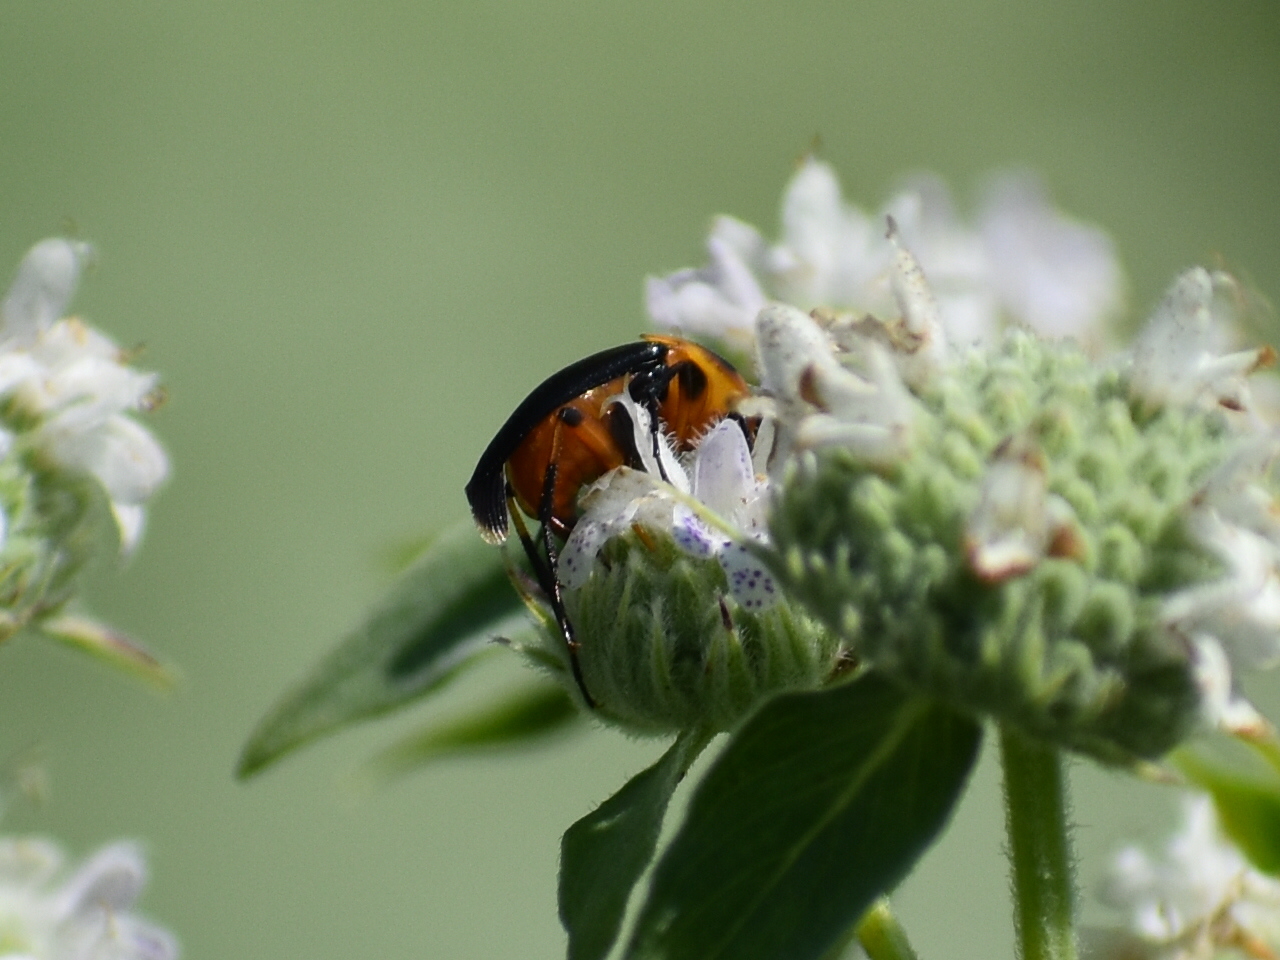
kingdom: Animalia
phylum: Arthropoda
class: Insecta
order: Coleoptera
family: Ripiphoridae
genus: Macrosiagon
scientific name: Macrosiagon limbatum
